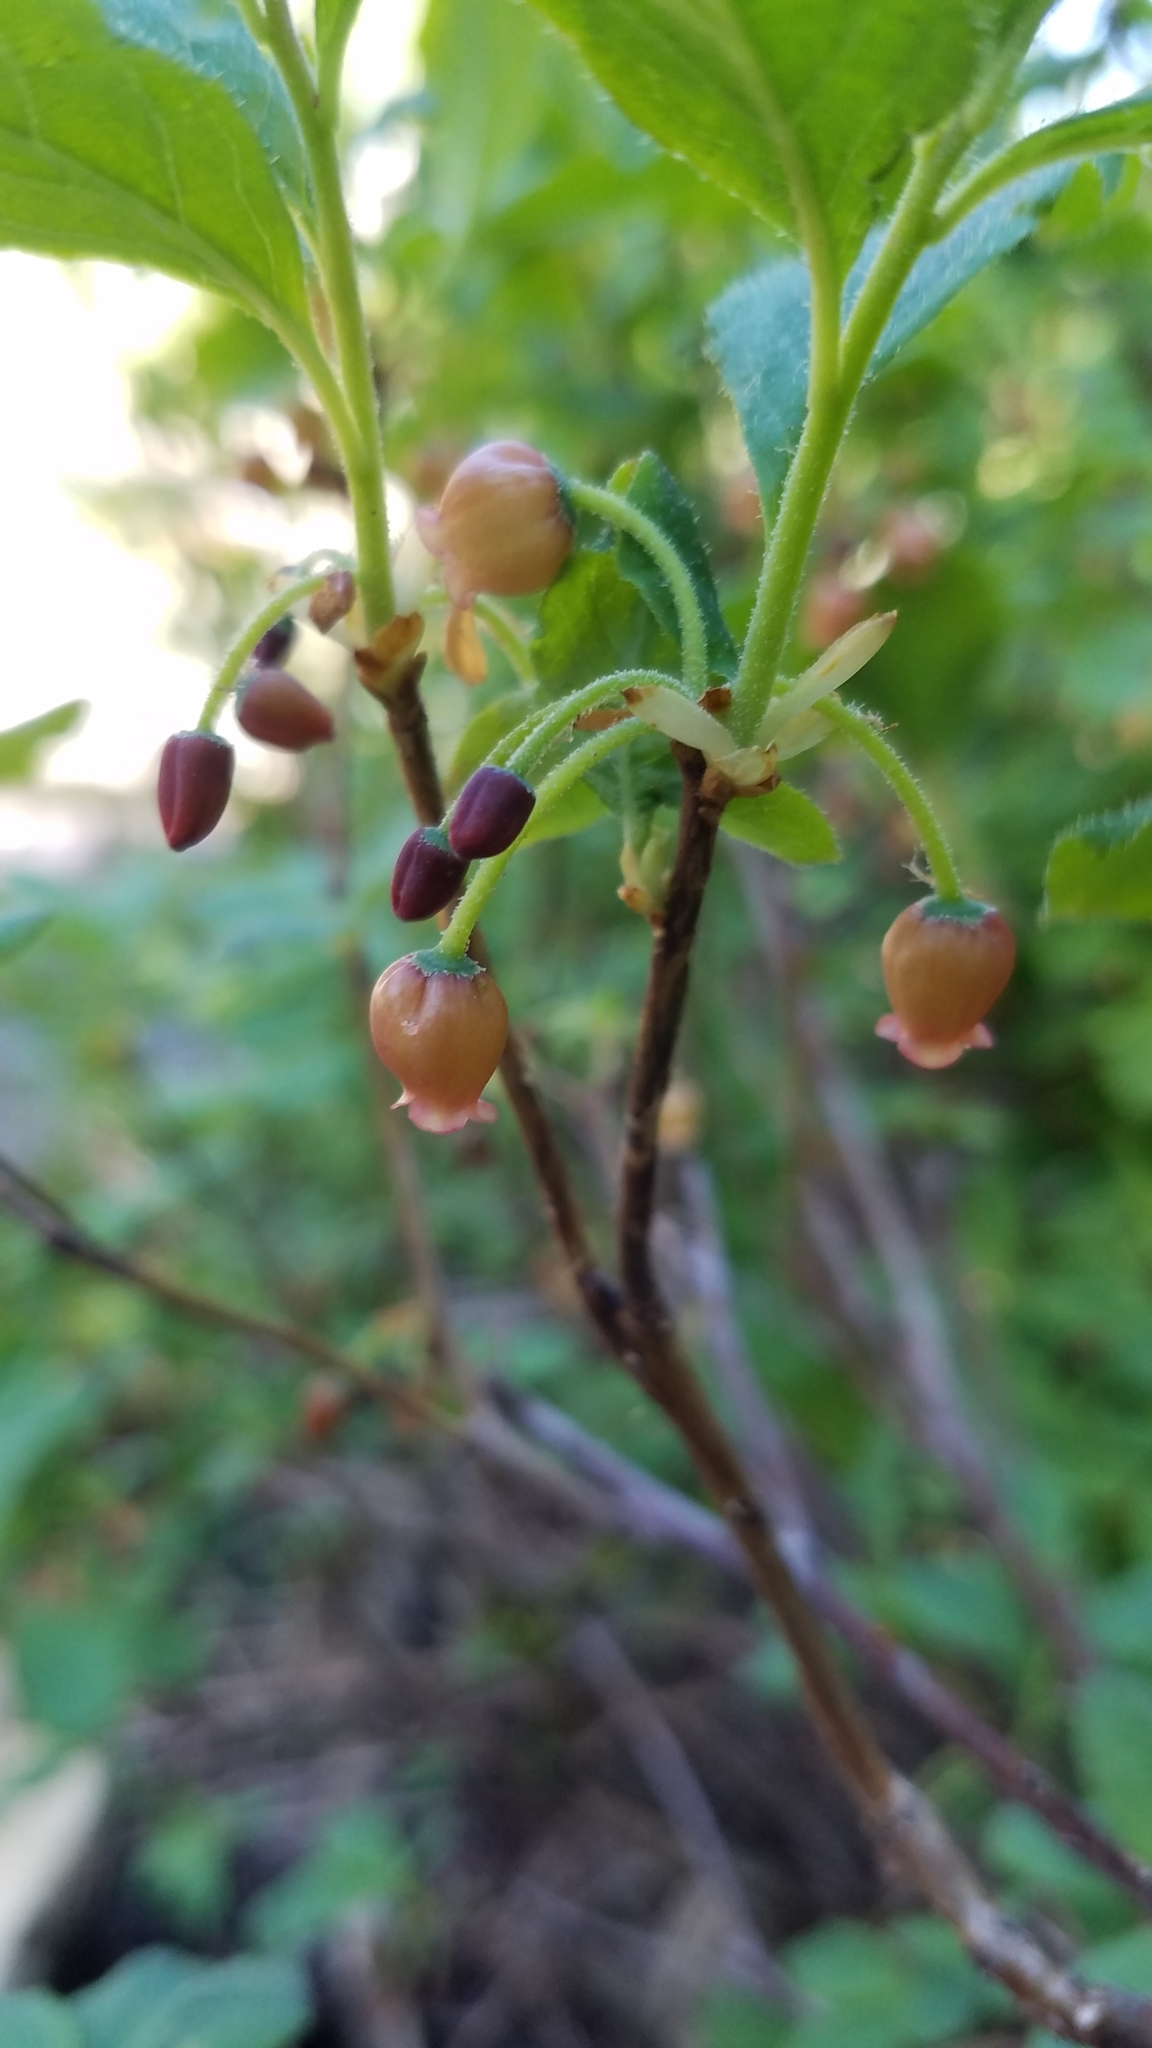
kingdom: Plantae
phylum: Tracheophyta
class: Magnoliopsida
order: Ericales
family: Ericaceae
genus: Rhododendron
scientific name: Rhododendron menziesii
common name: Pacific menziesia
